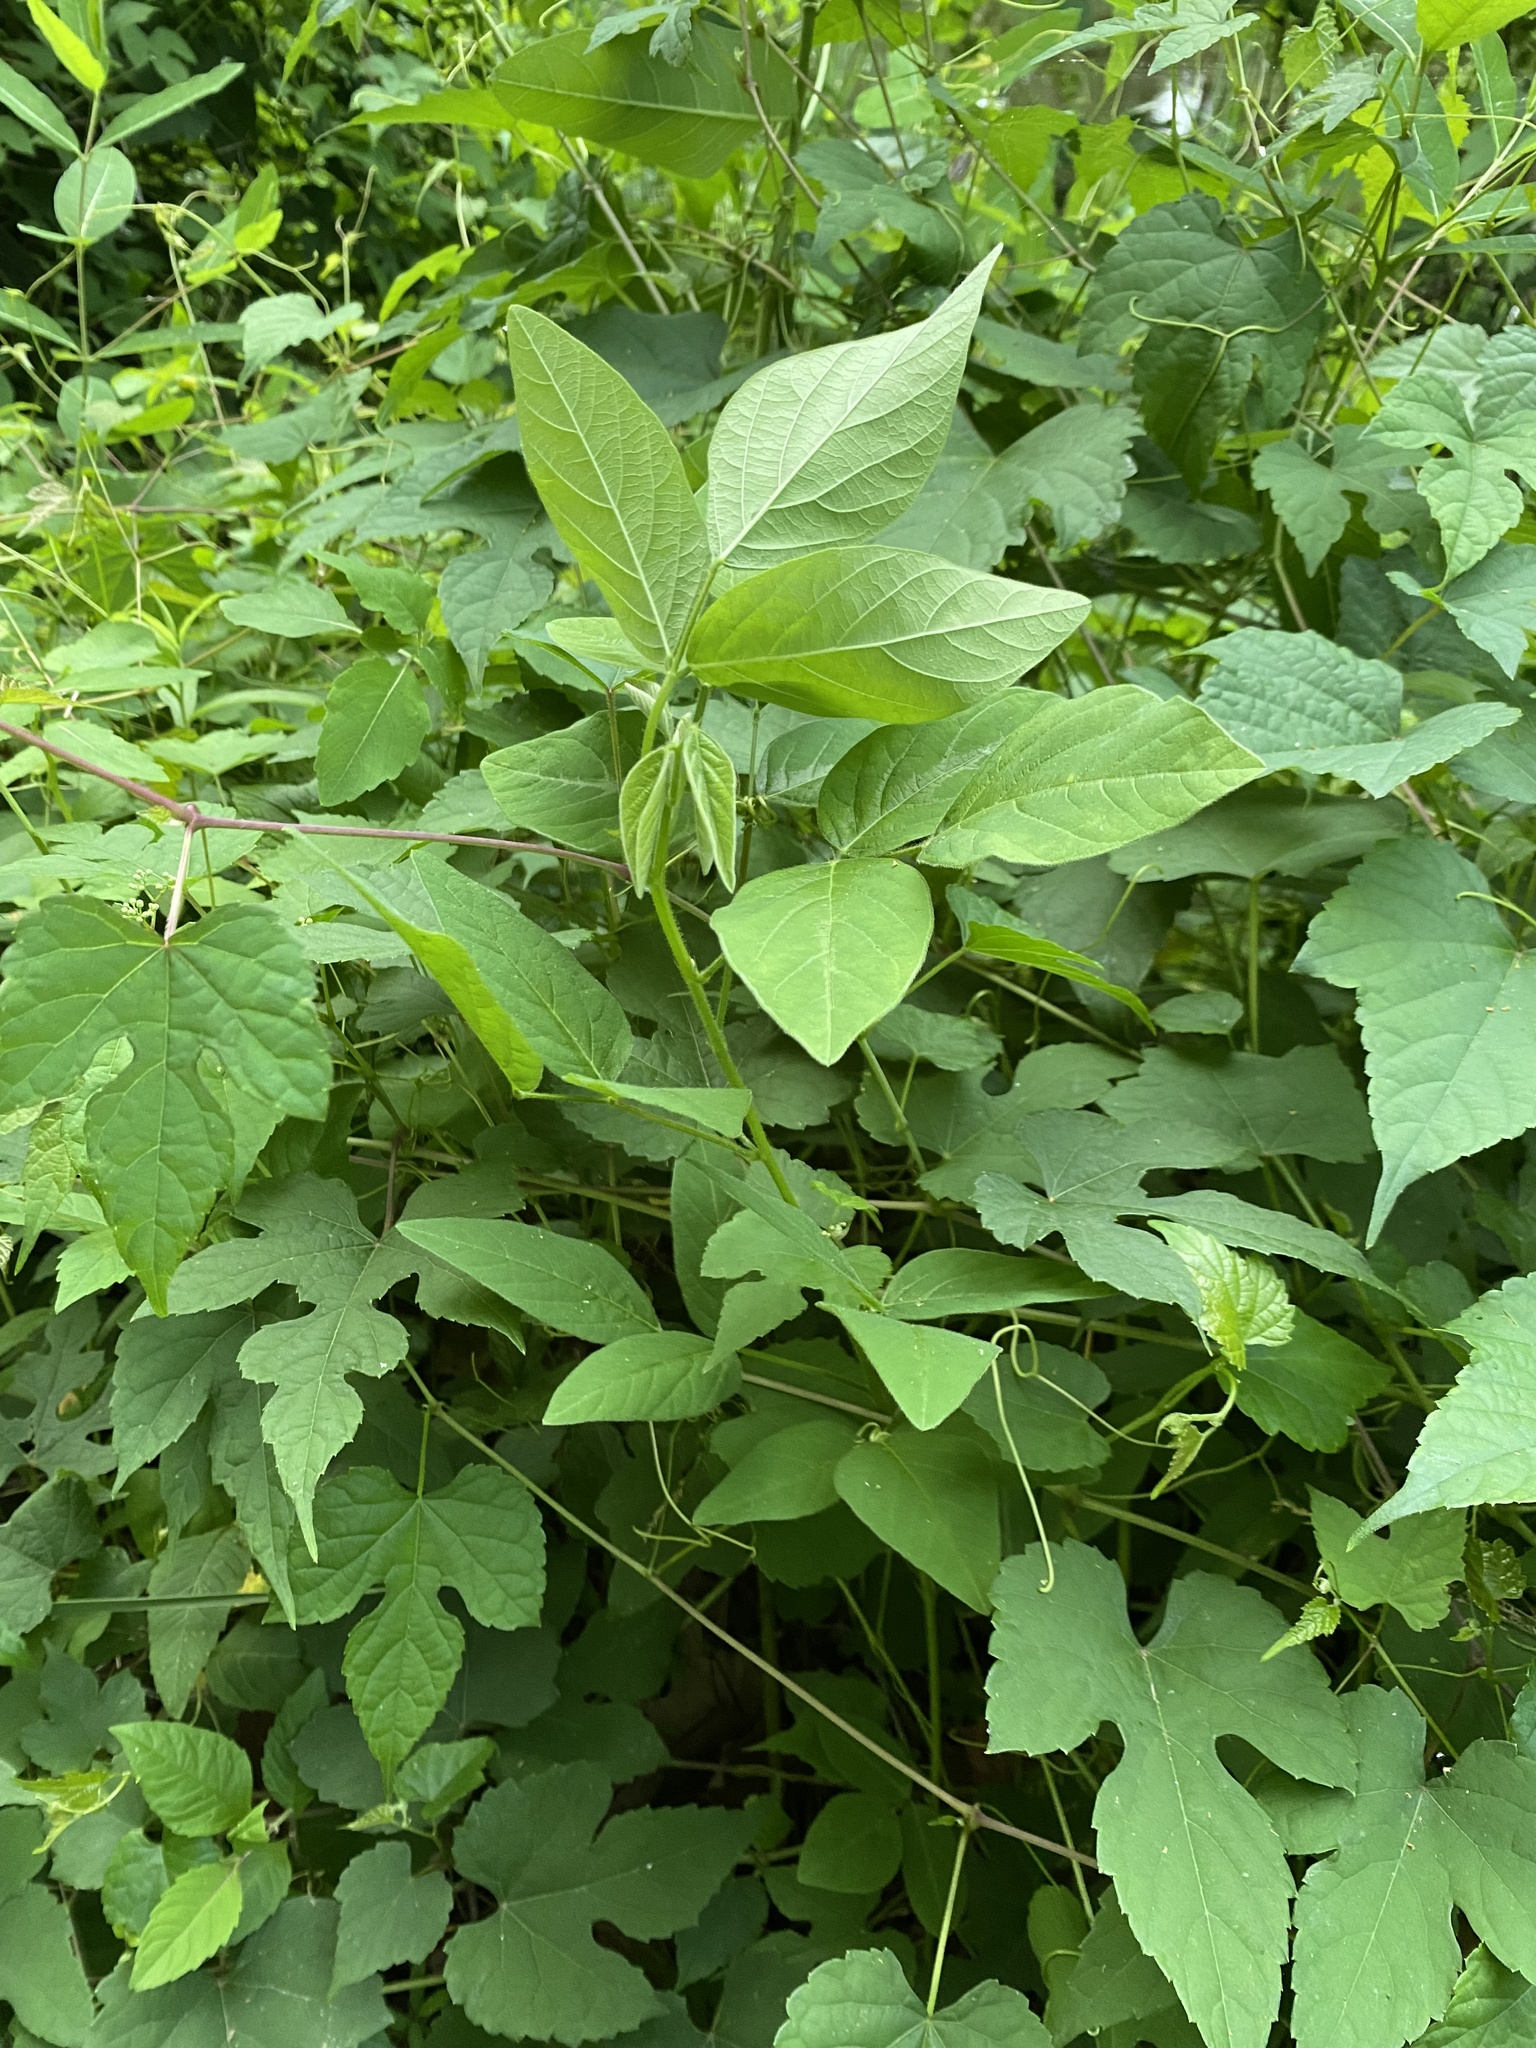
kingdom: Plantae
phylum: Tracheophyta
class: Magnoliopsida
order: Fabales
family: Fabaceae
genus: Amphicarpaea
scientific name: Amphicarpaea bracteata
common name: American hog peanut
